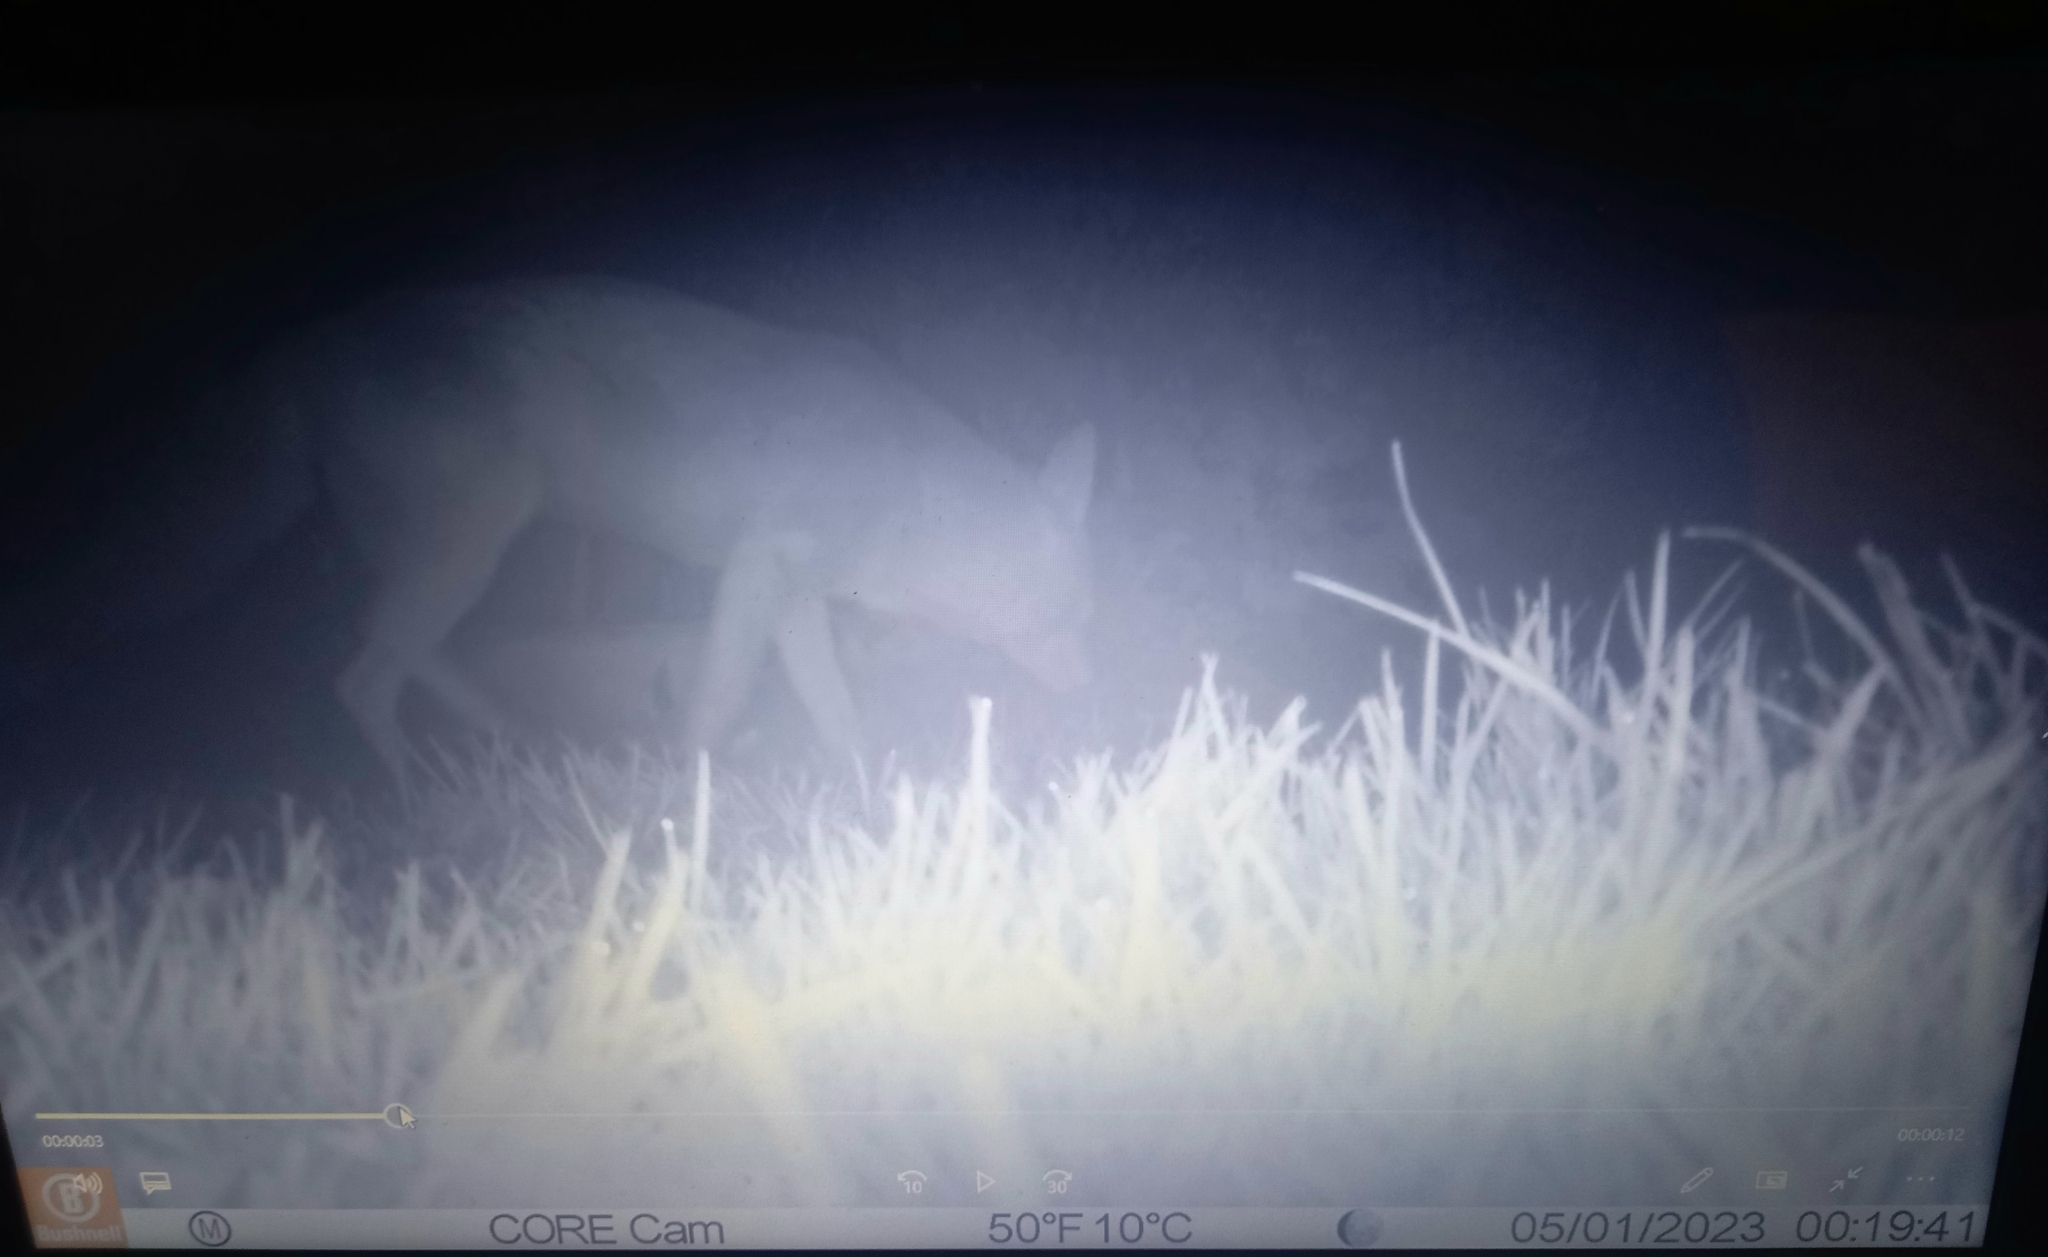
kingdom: Animalia
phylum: Chordata
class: Mammalia
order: Carnivora
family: Canidae
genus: Vulpes
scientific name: Vulpes vulpes
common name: Red fox
